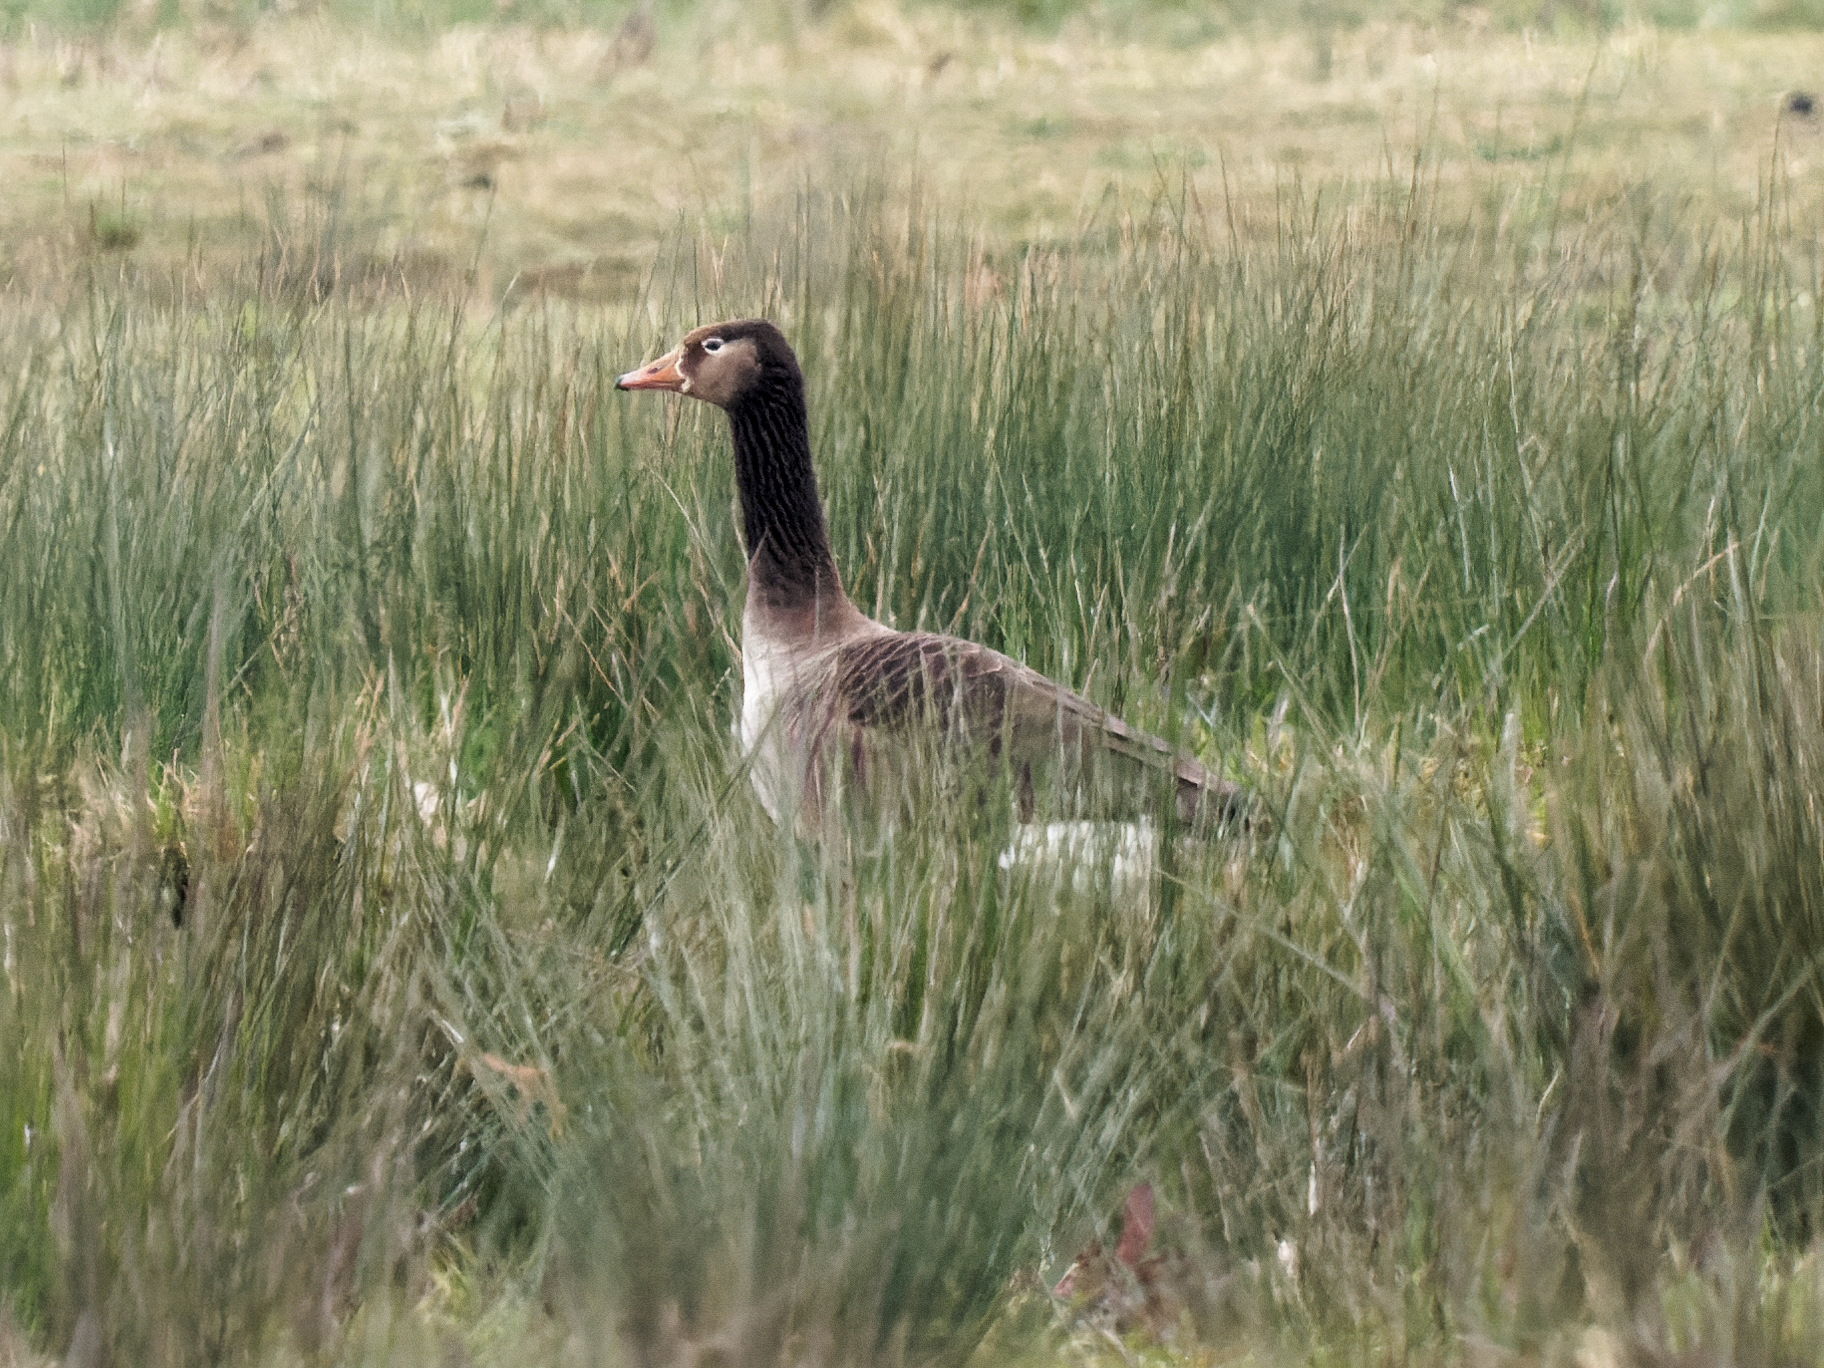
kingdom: Animalia
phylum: Chordata
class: Aves
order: Anseriformes
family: Anatidae
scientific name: Anatidae
